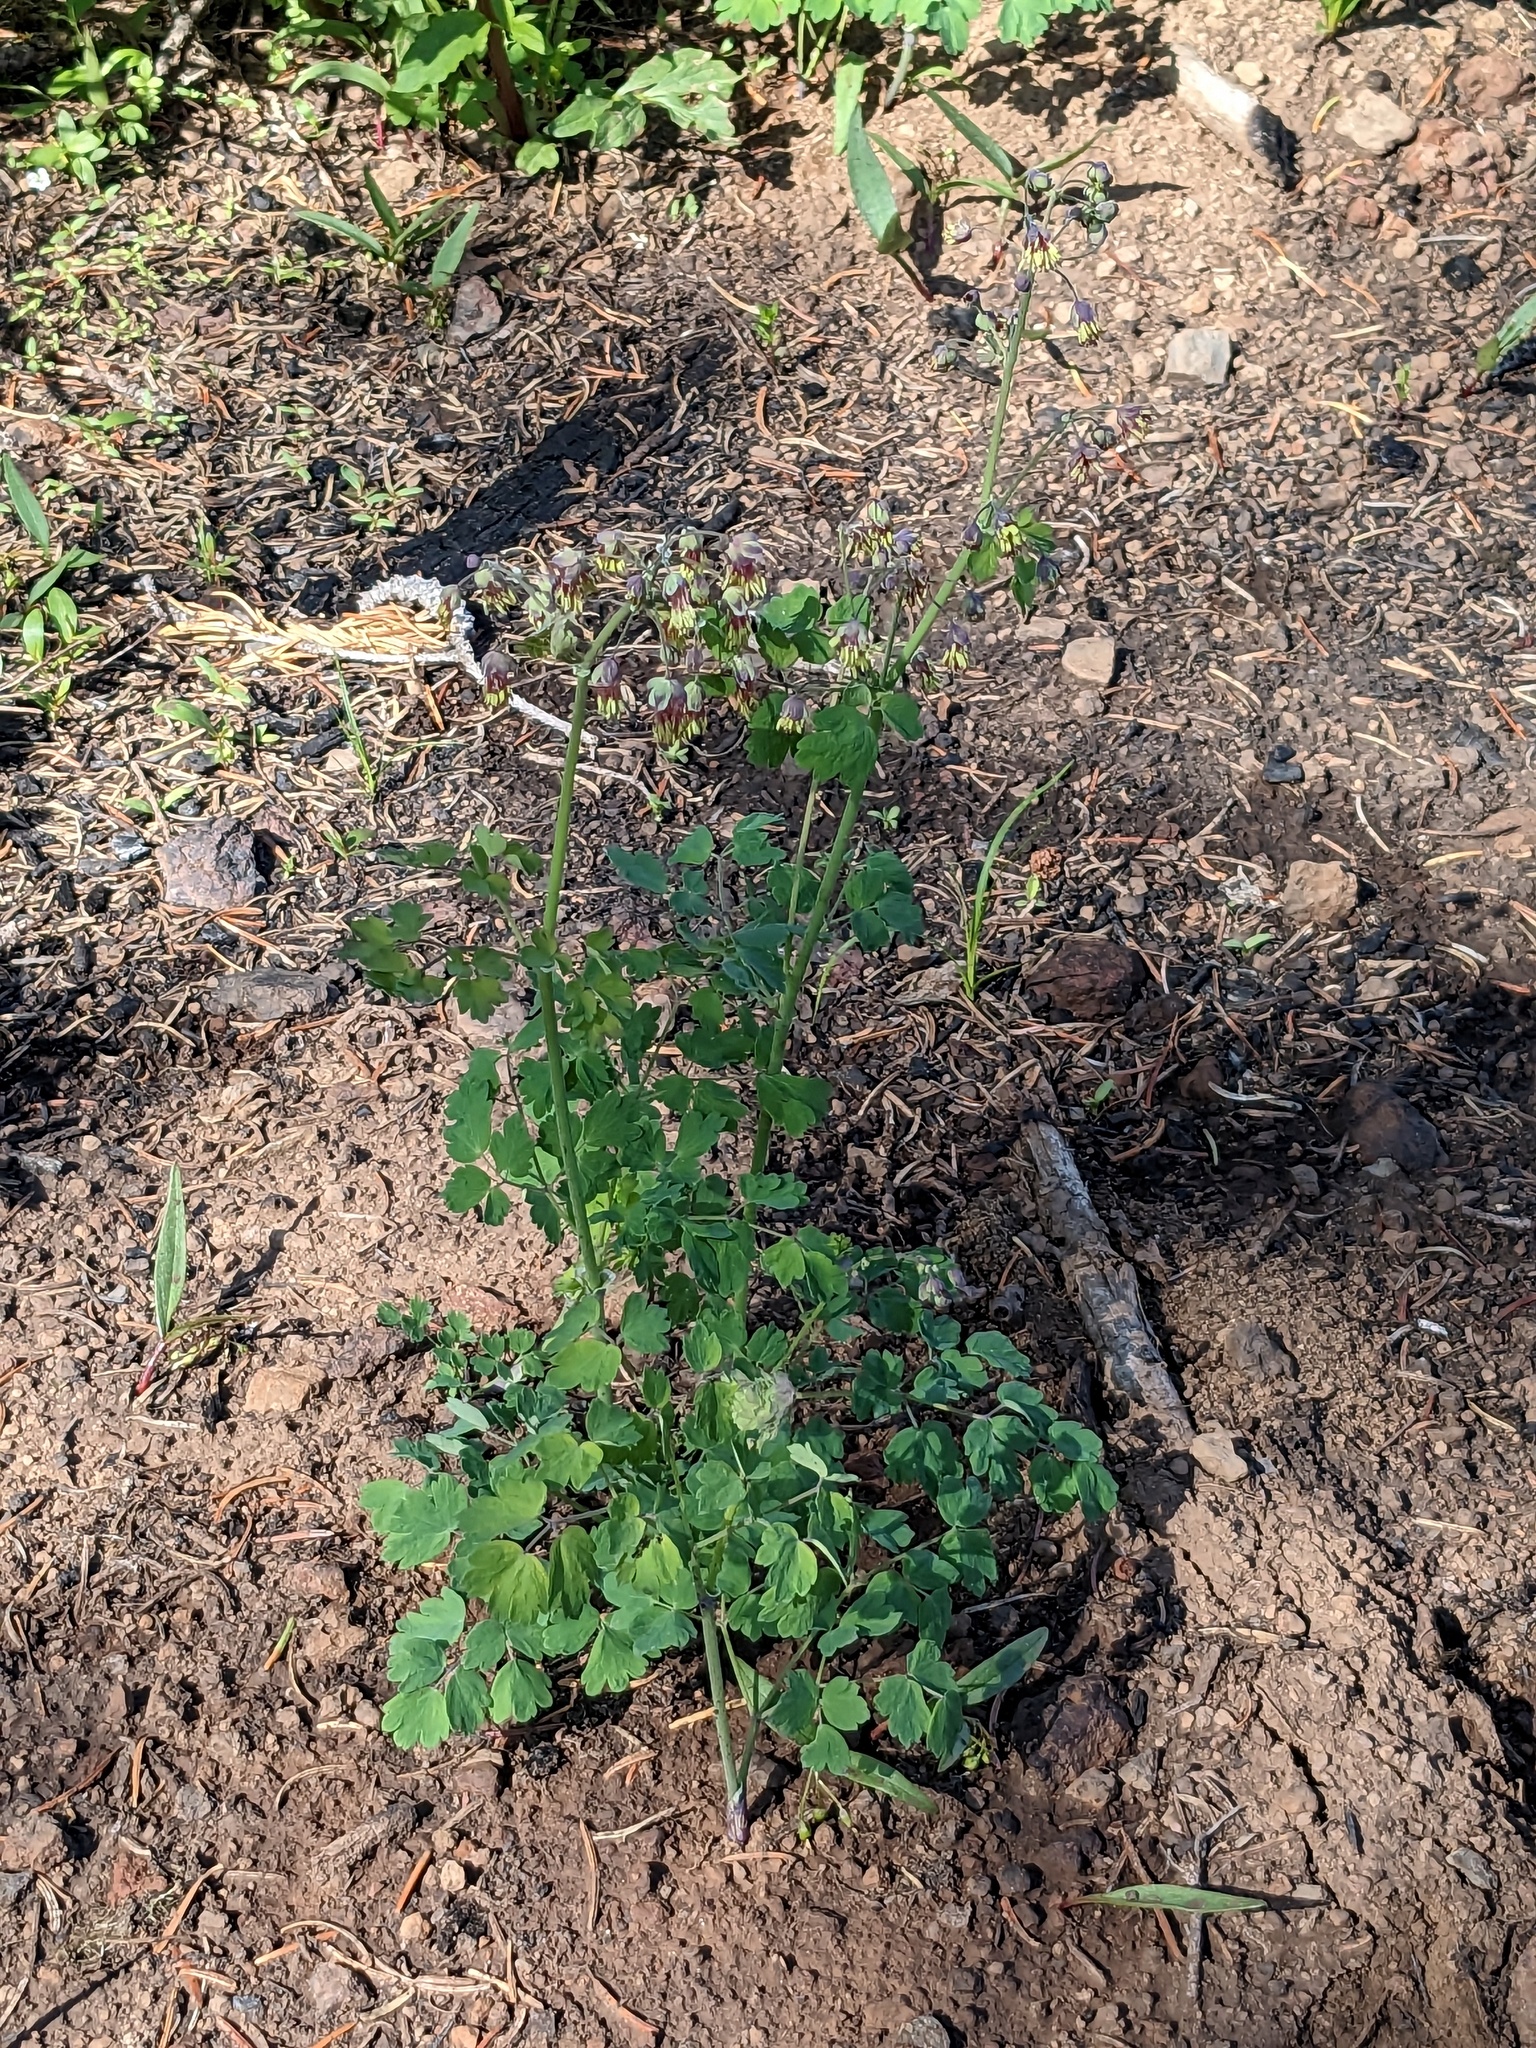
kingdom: Plantae
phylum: Tracheophyta
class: Magnoliopsida
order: Ranunculales
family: Ranunculaceae
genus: Thalictrum
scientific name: Thalictrum occidentale
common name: Western meadow-rue
